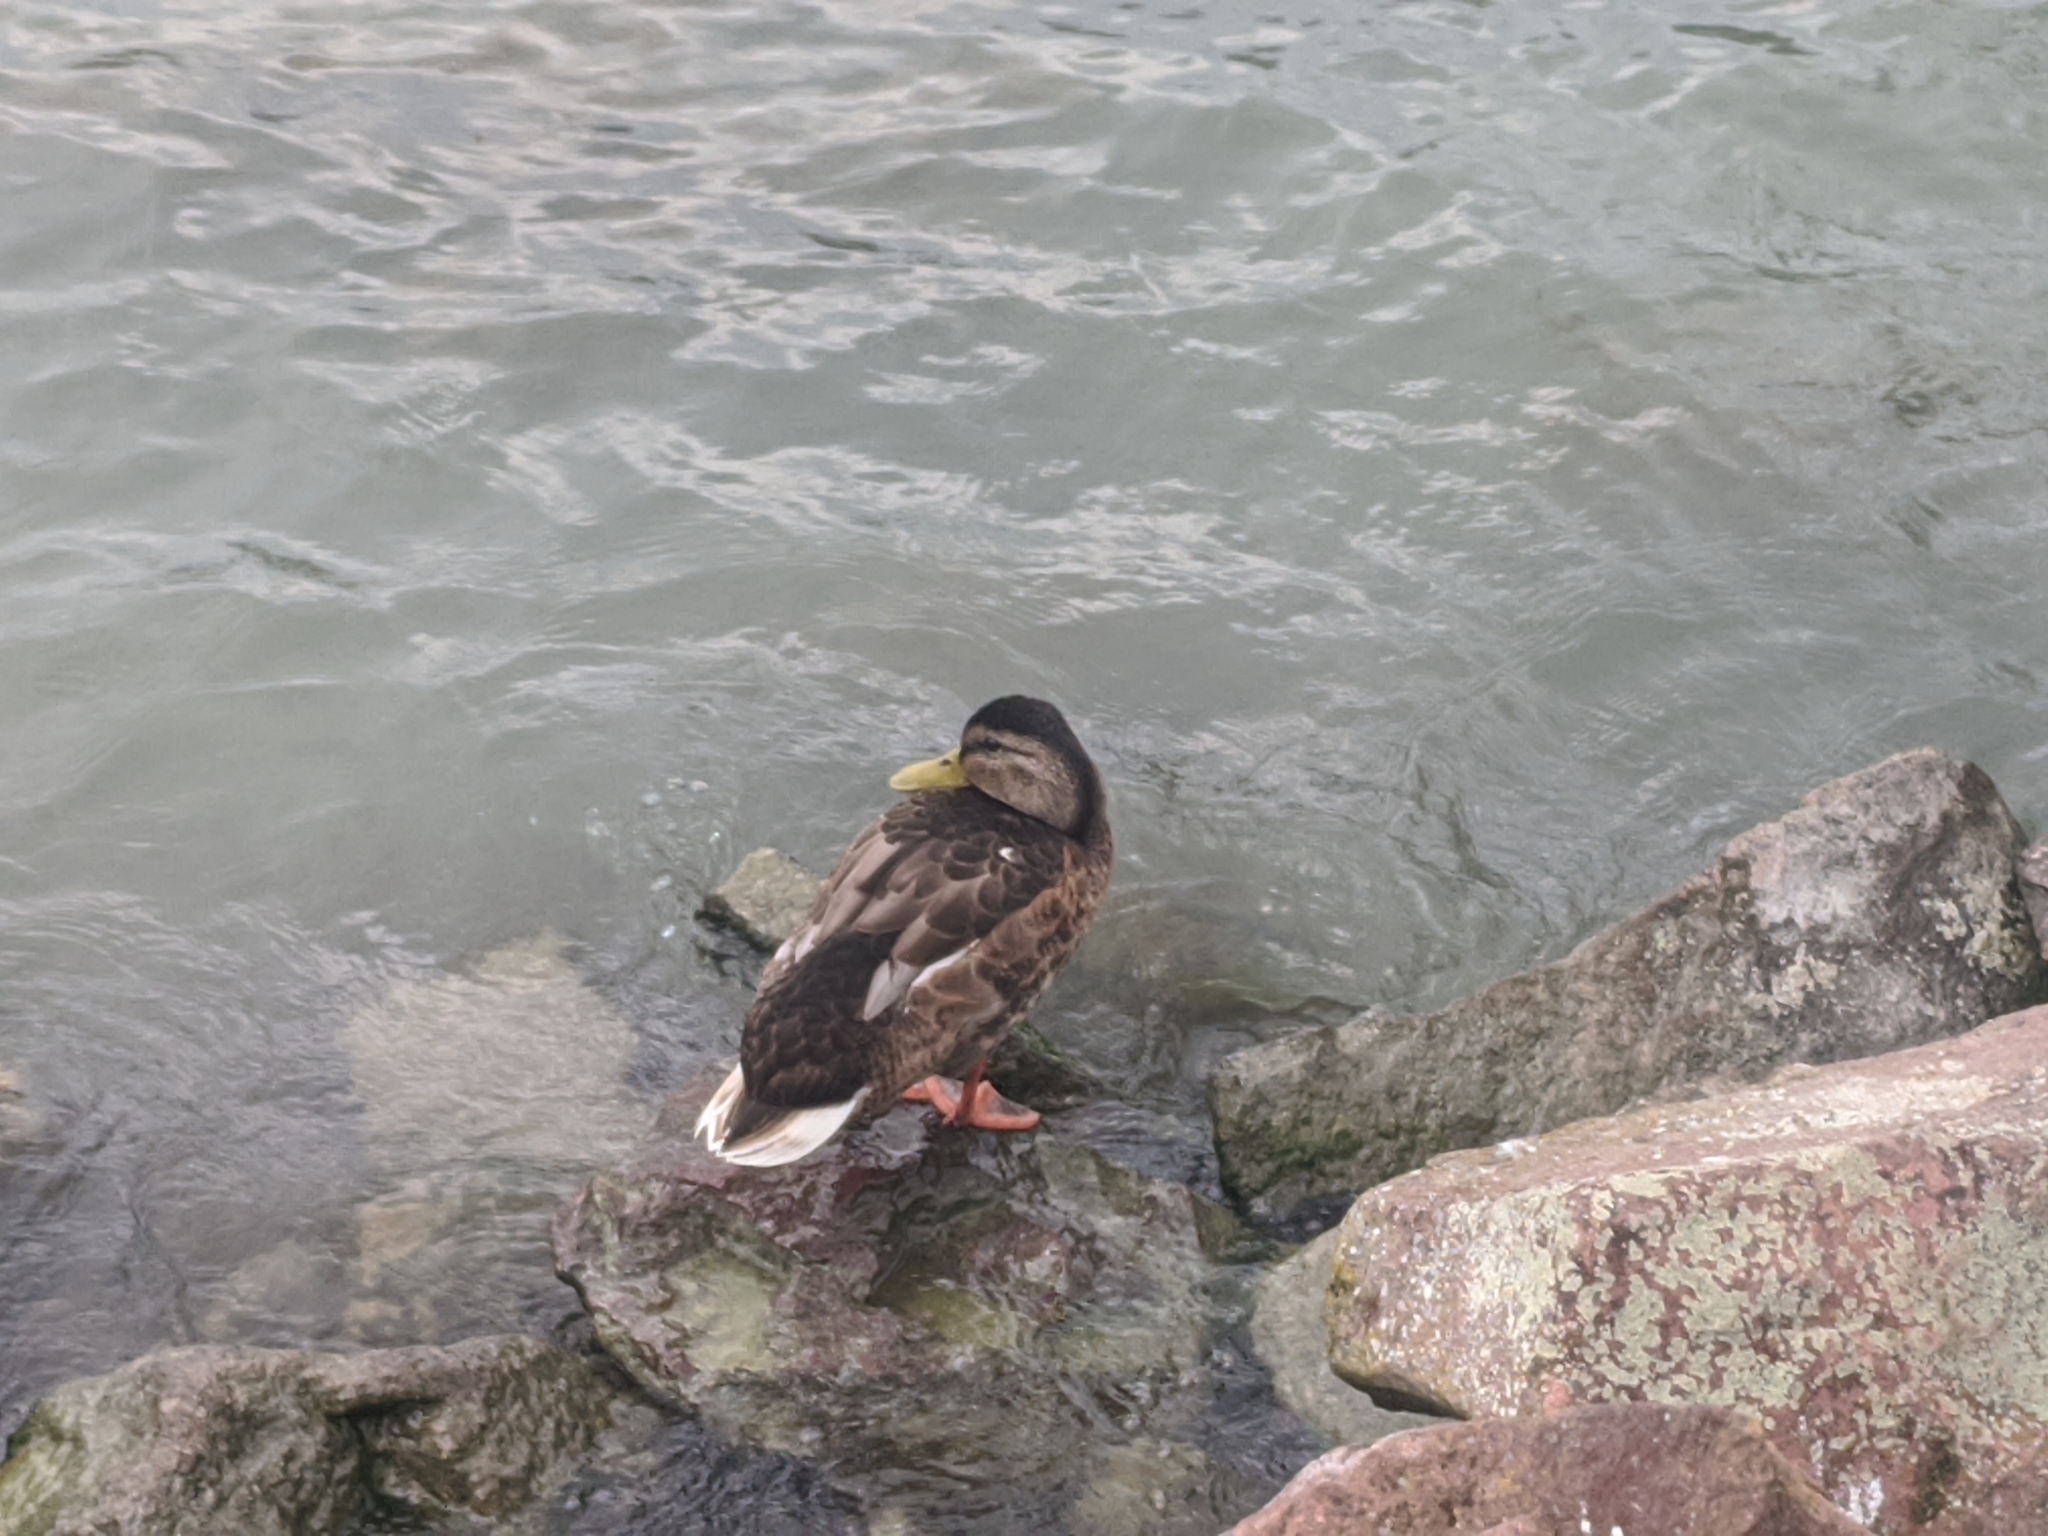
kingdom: Animalia
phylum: Chordata
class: Aves
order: Anseriformes
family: Anatidae
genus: Anas
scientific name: Anas platyrhynchos
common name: Mallard
